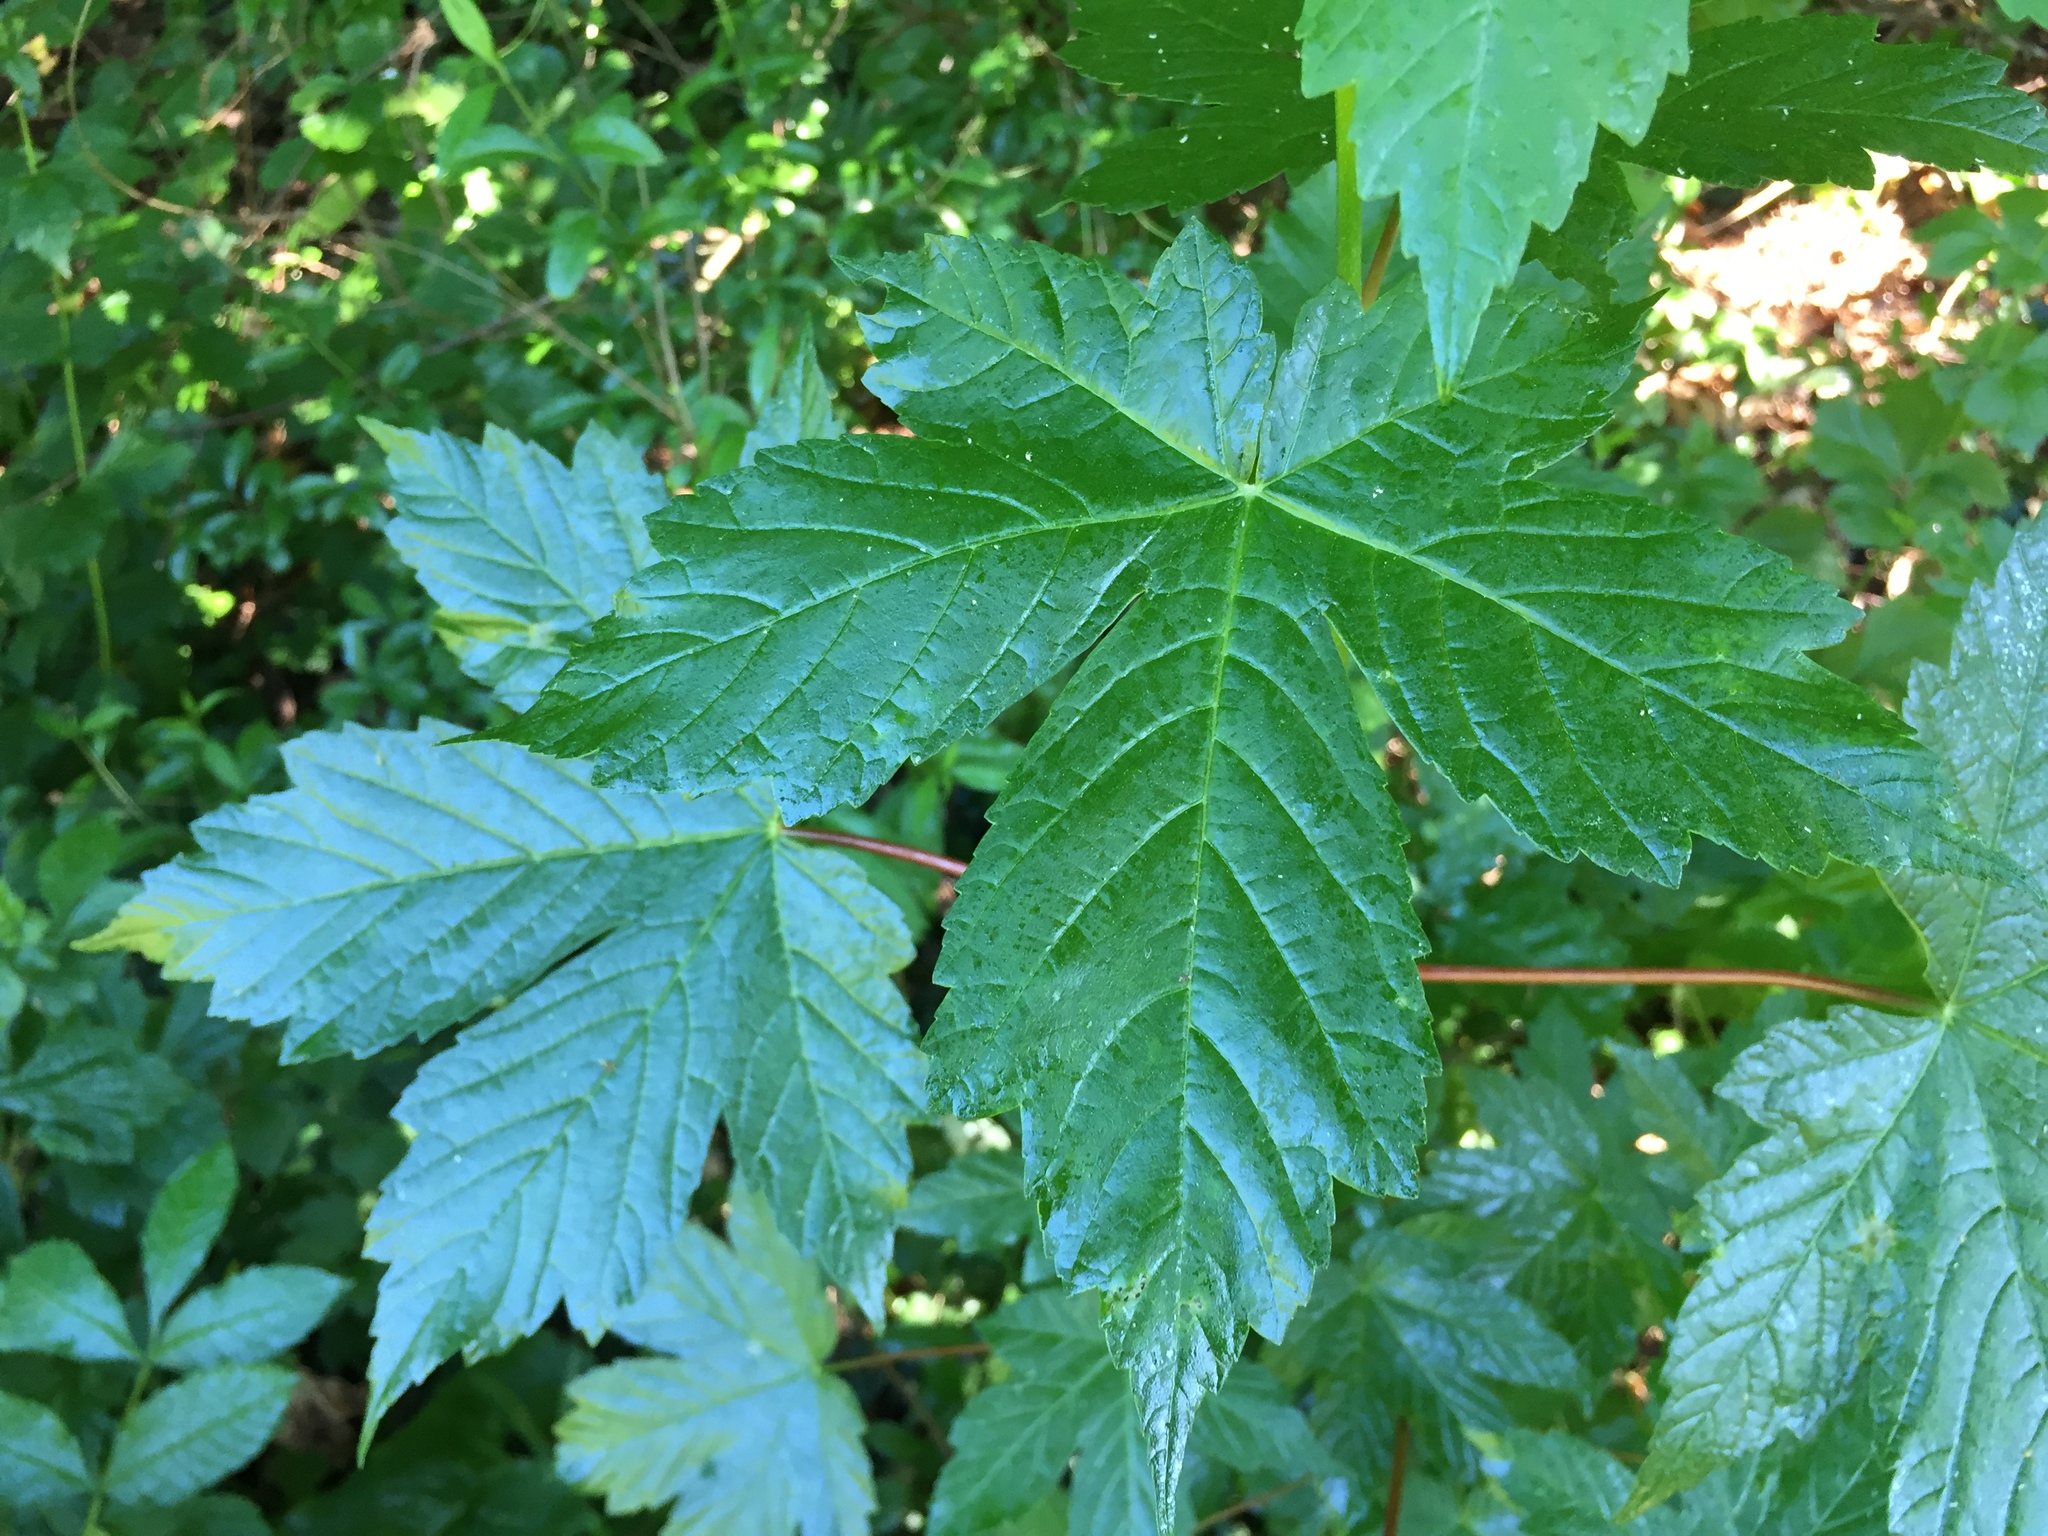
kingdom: Plantae
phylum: Tracheophyta
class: Magnoliopsida
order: Sapindales
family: Sapindaceae
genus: Acer
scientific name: Acer pseudoplatanus
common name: Sycamore
